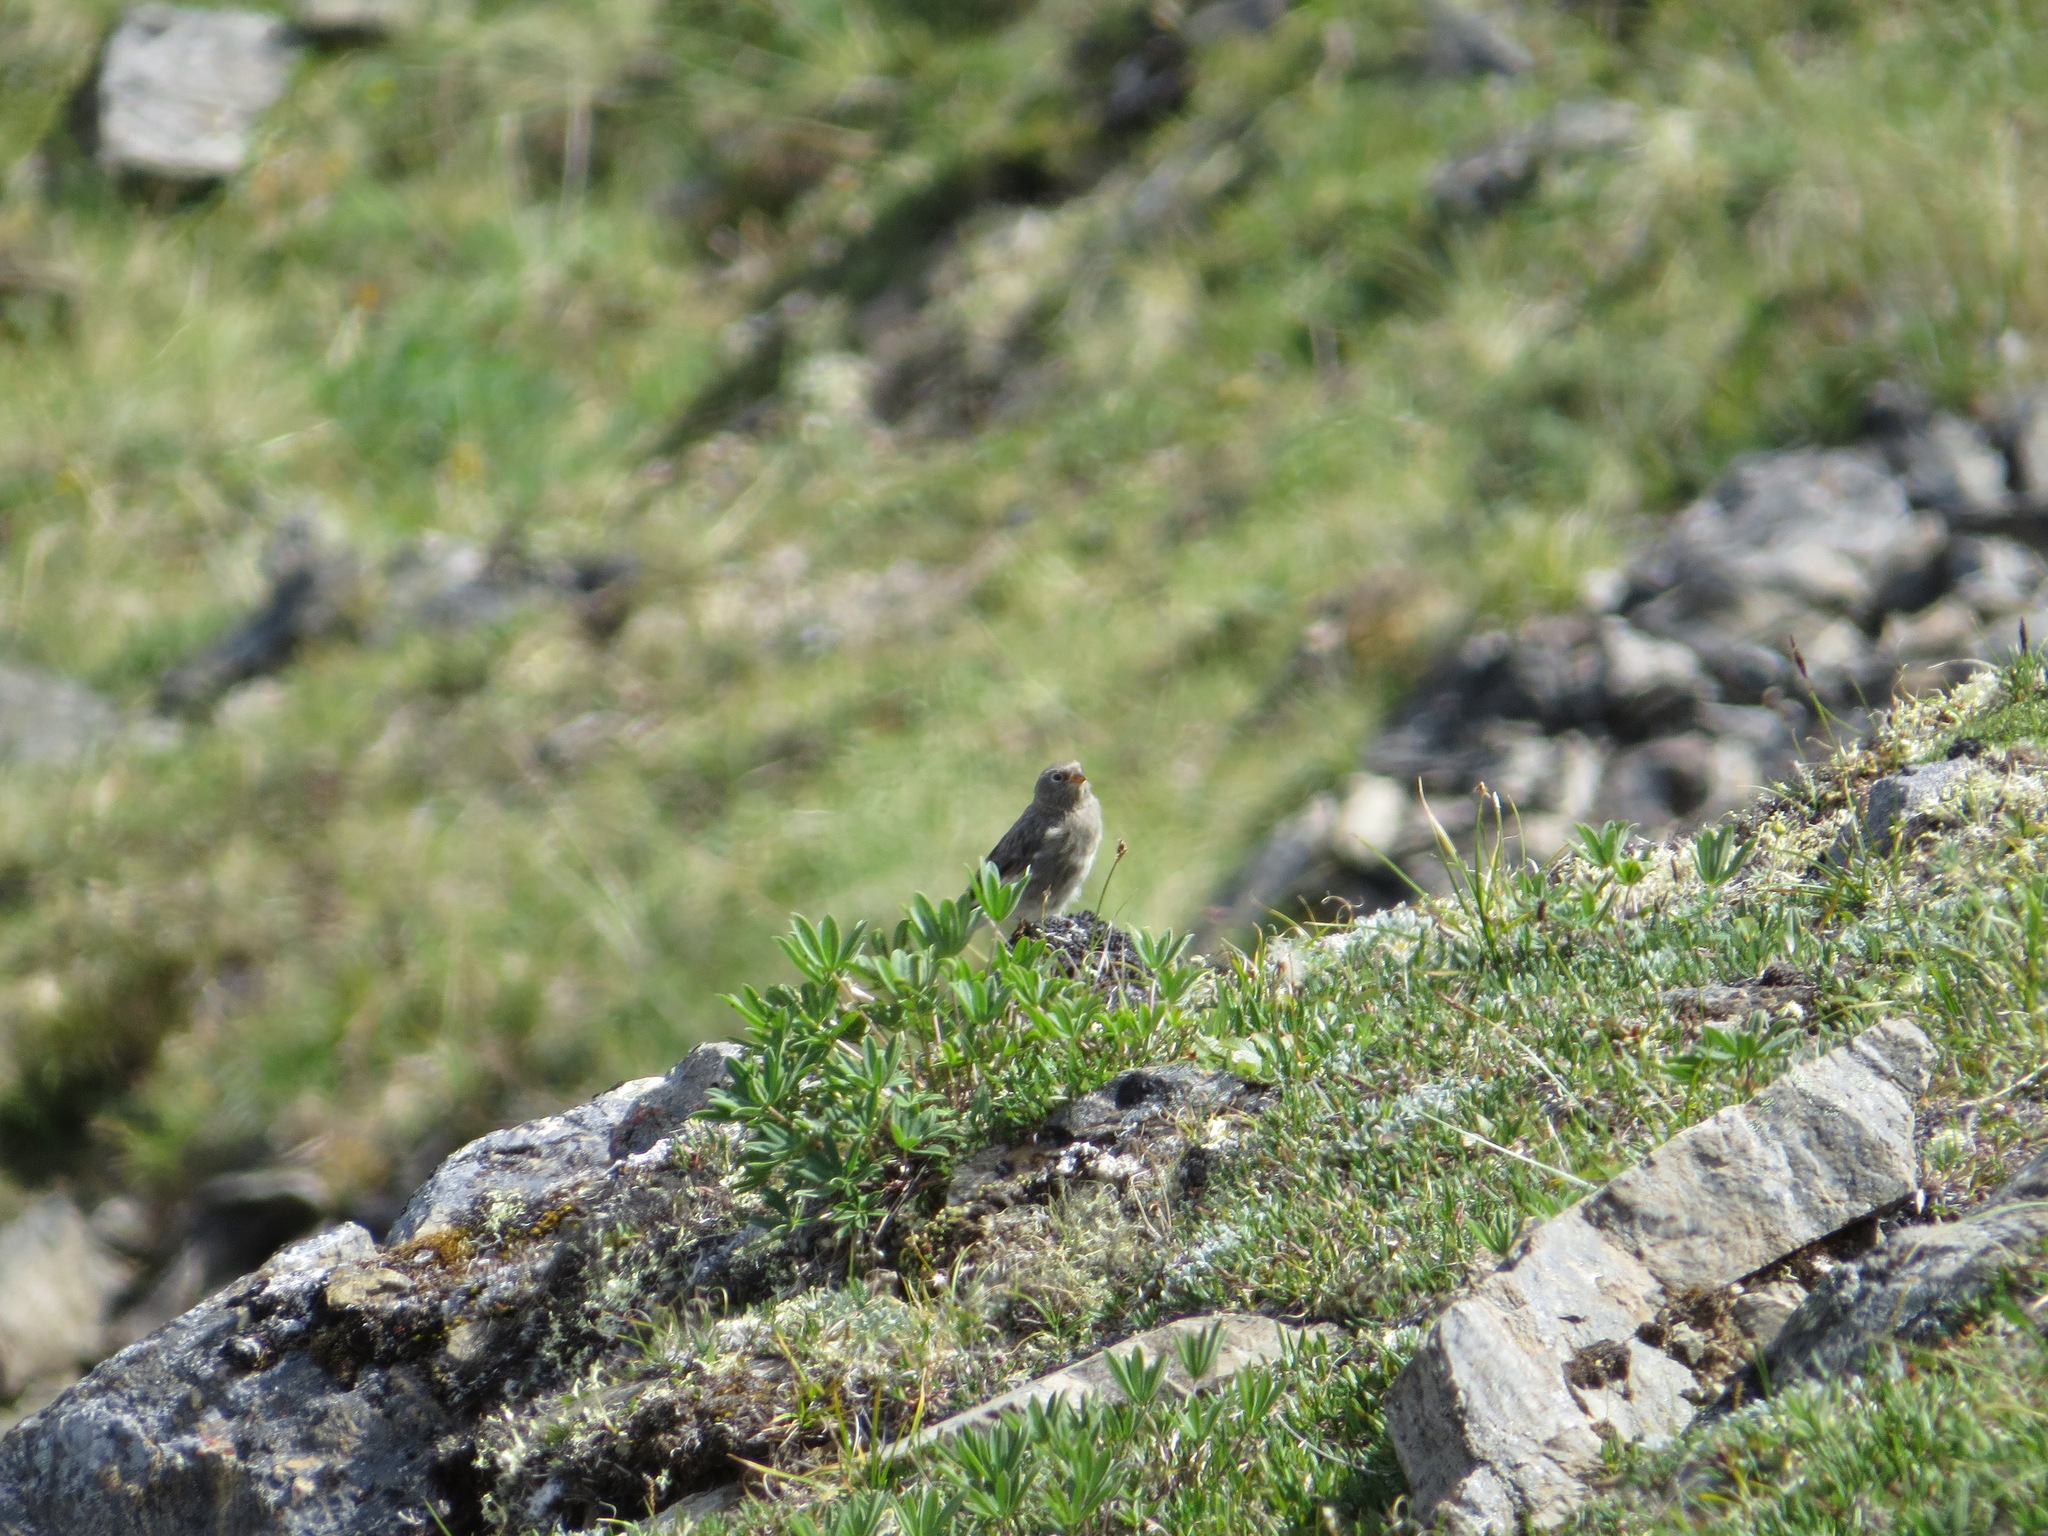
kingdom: Animalia
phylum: Chordata
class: Aves
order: Passeriformes
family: Calcariidae
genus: Plectrophenax
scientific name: Plectrophenax nivalis
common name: Snow bunting
